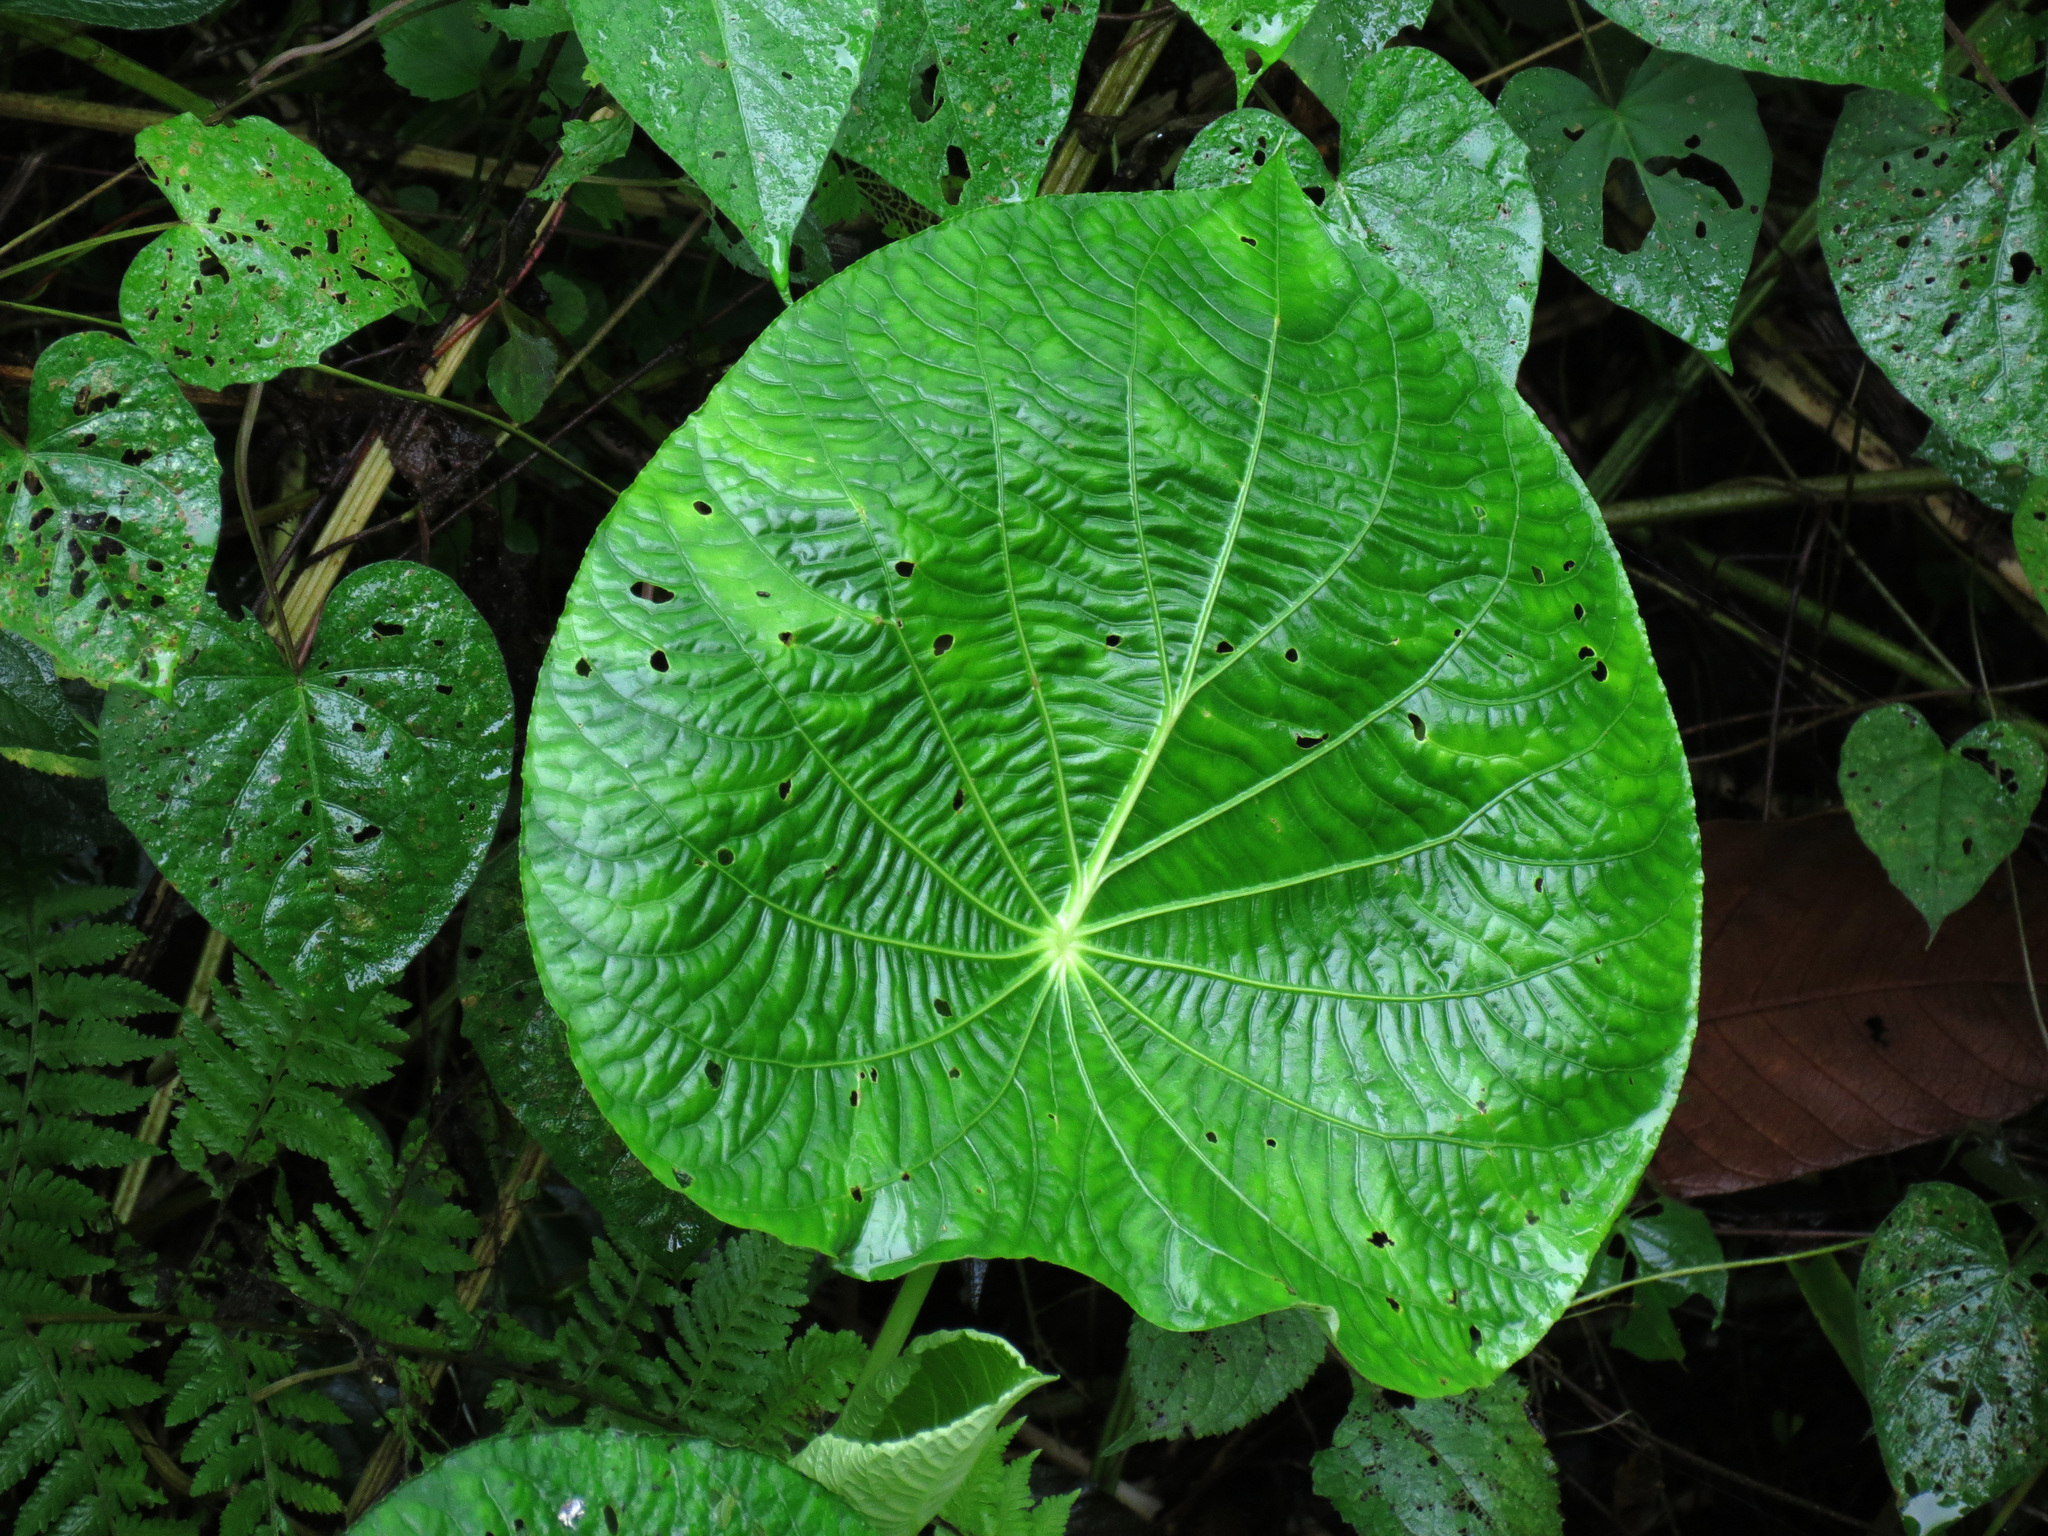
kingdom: Plantae
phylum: Tracheophyta
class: Magnoliopsida
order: Piperales
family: Piperaceae
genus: Piper
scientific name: Piper peltatum
